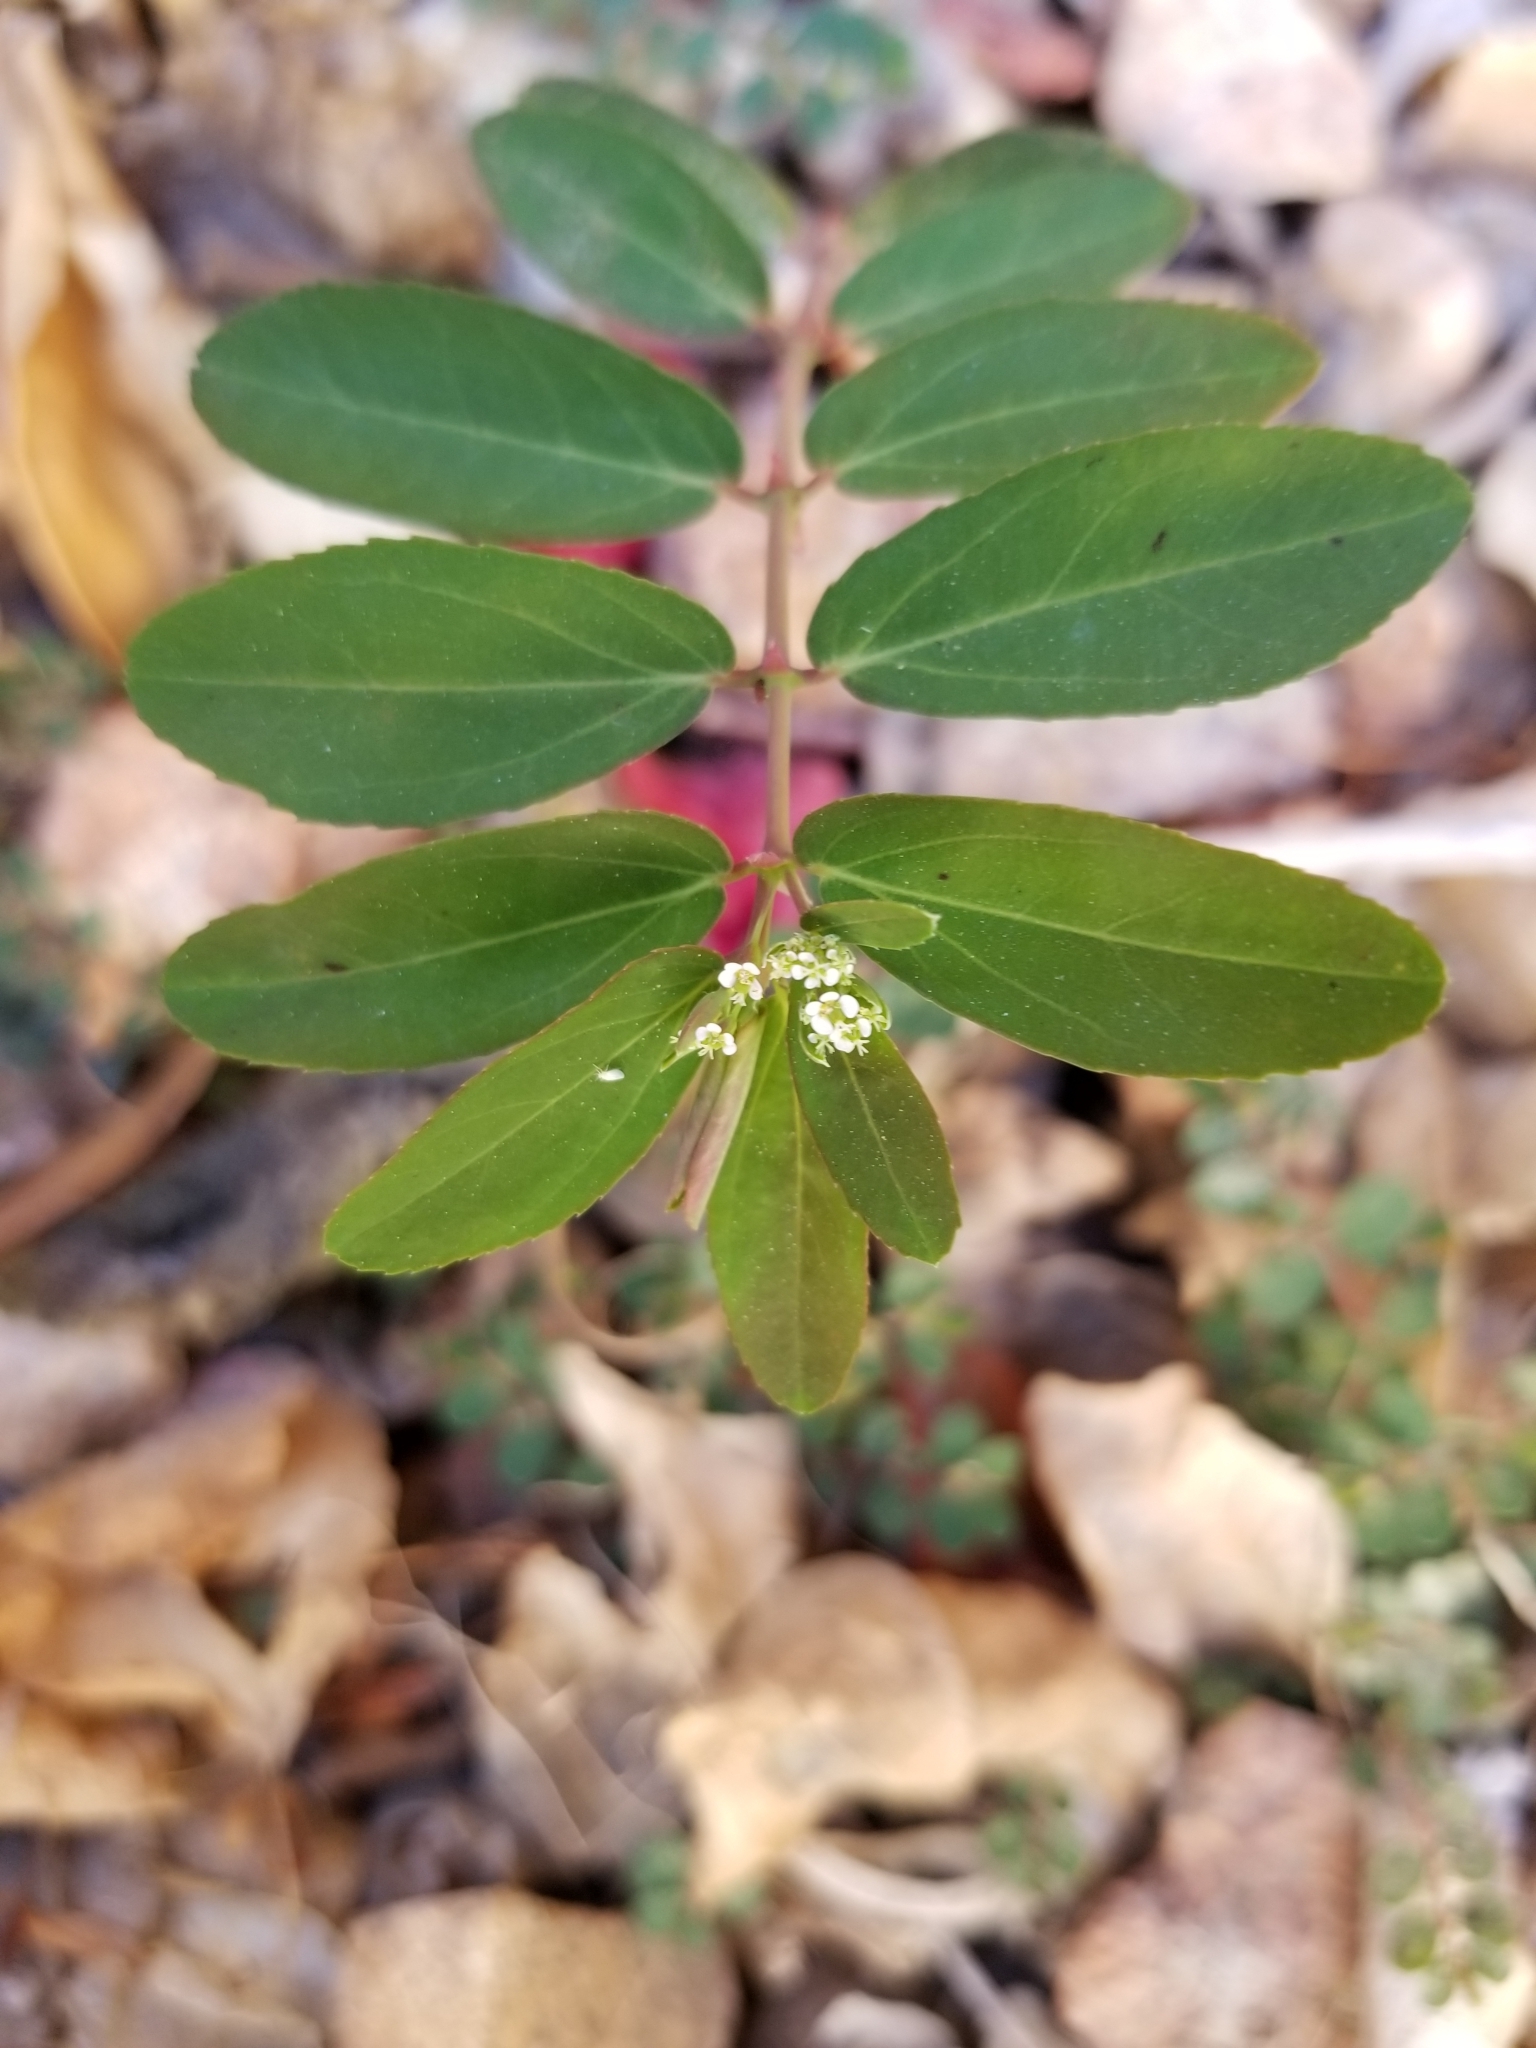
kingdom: Plantae
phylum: Tracheophyta
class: Magnoliopsida
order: Malpighiales
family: Euphorbiaceae
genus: Euphorbia
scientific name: Euphorbia hypericifolia
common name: Graceful sandmat
